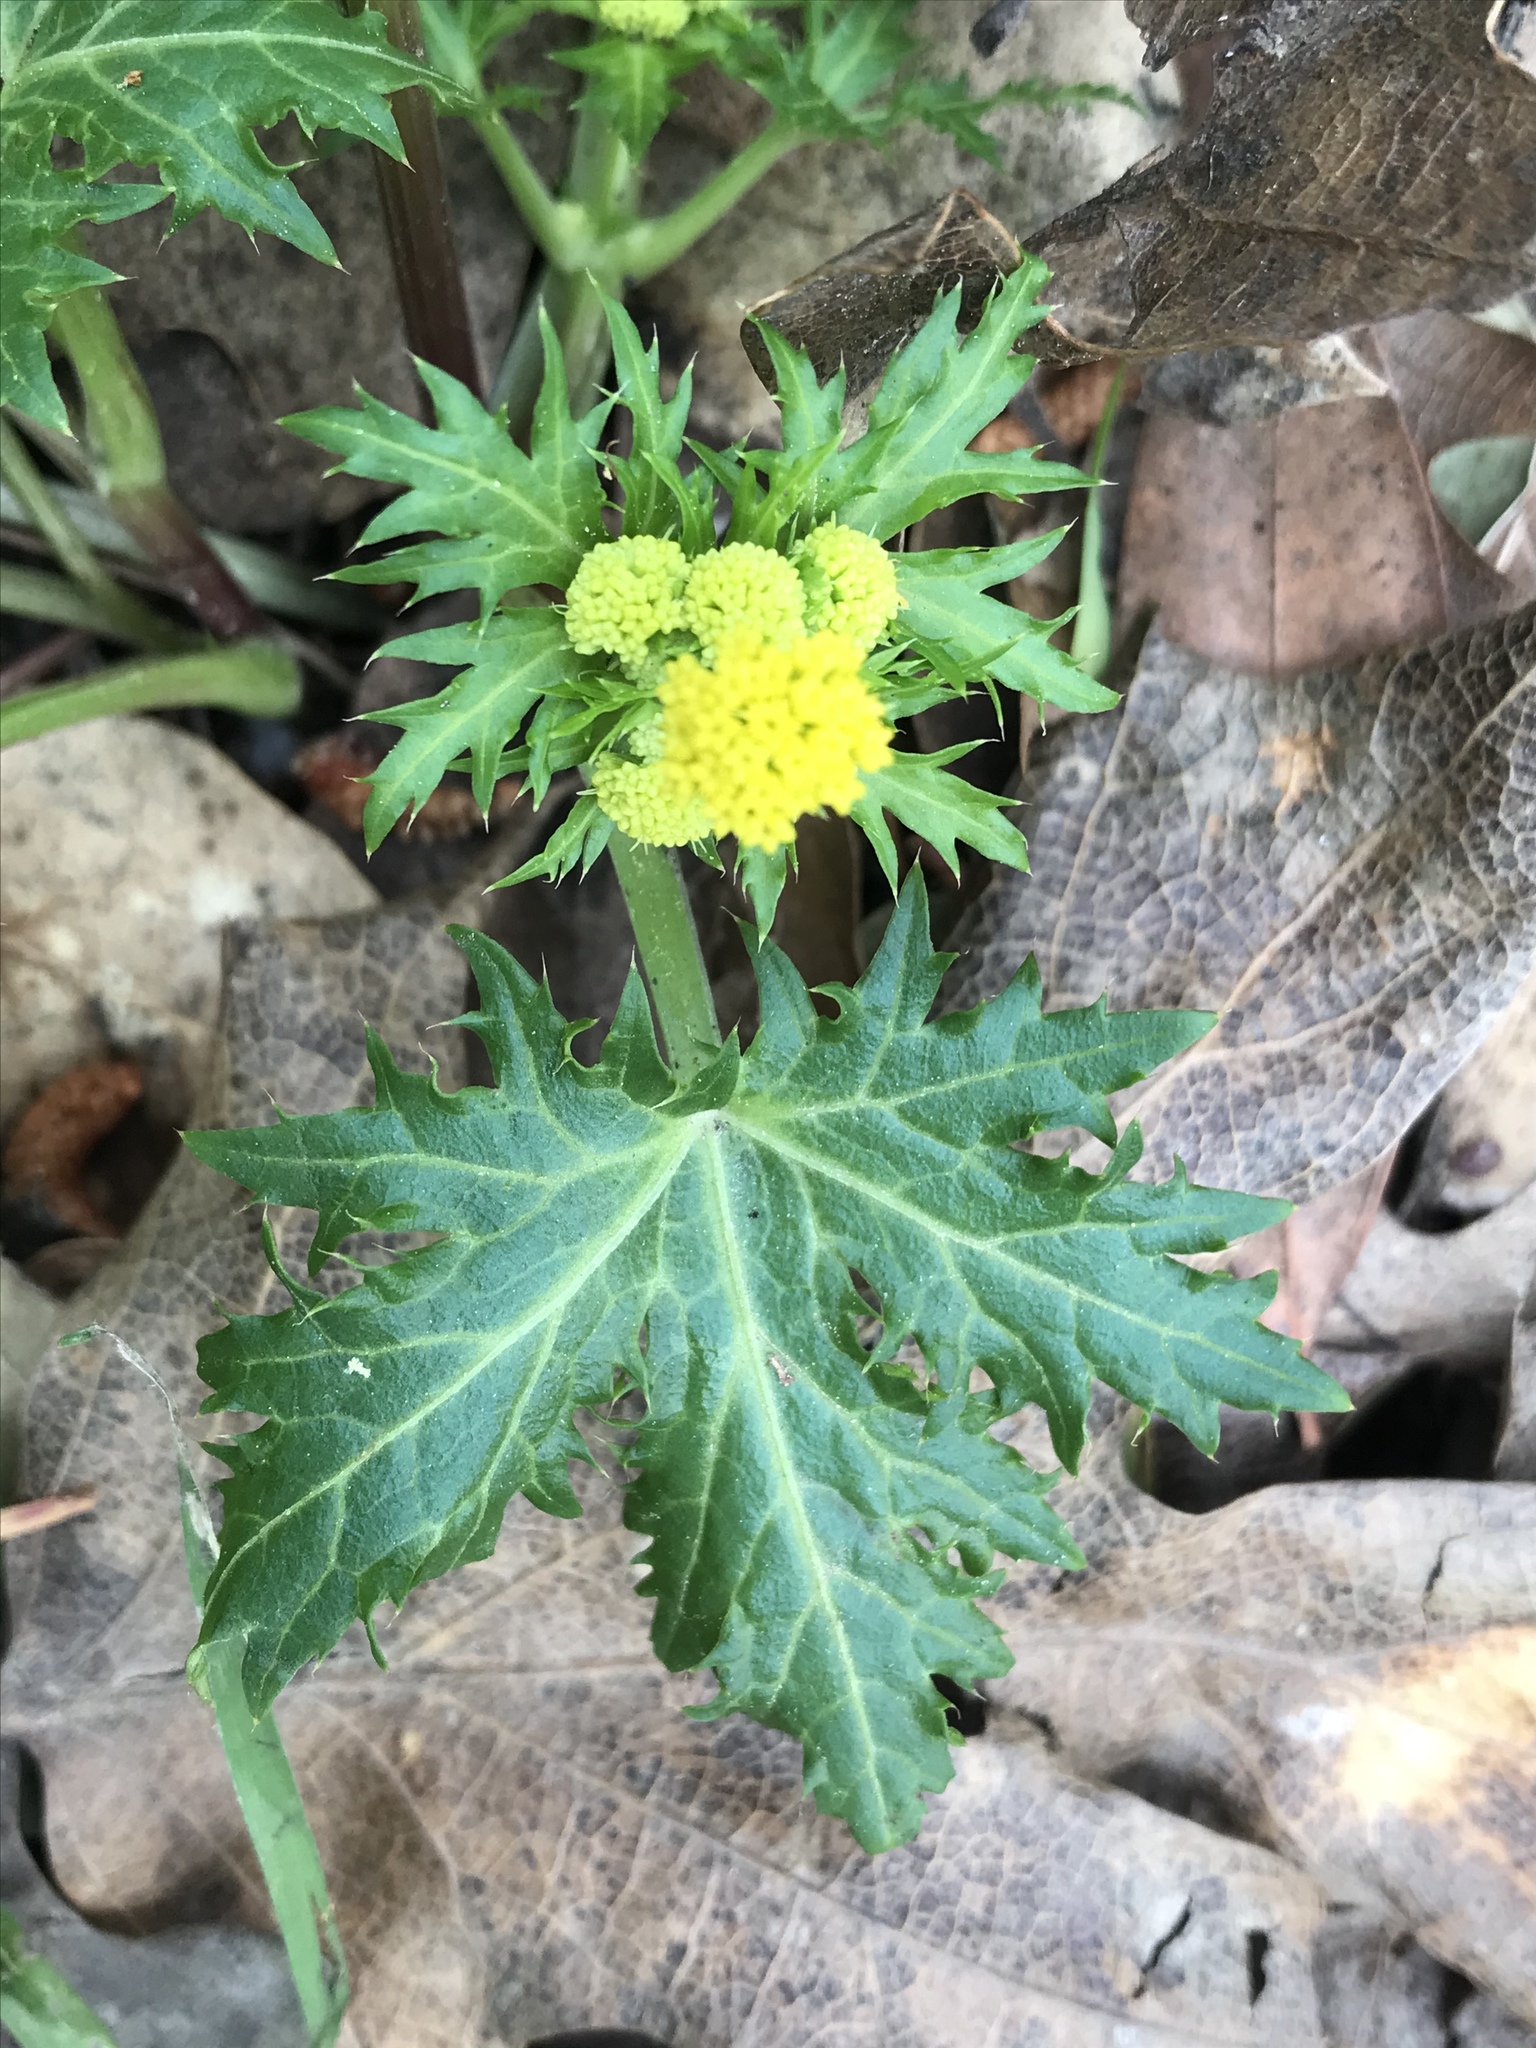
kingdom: Plantae
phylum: Tracheophyta
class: Magnoliopsida
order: Apiales
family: Apiaceae
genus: Sanicula
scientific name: Sanicula laciniata
